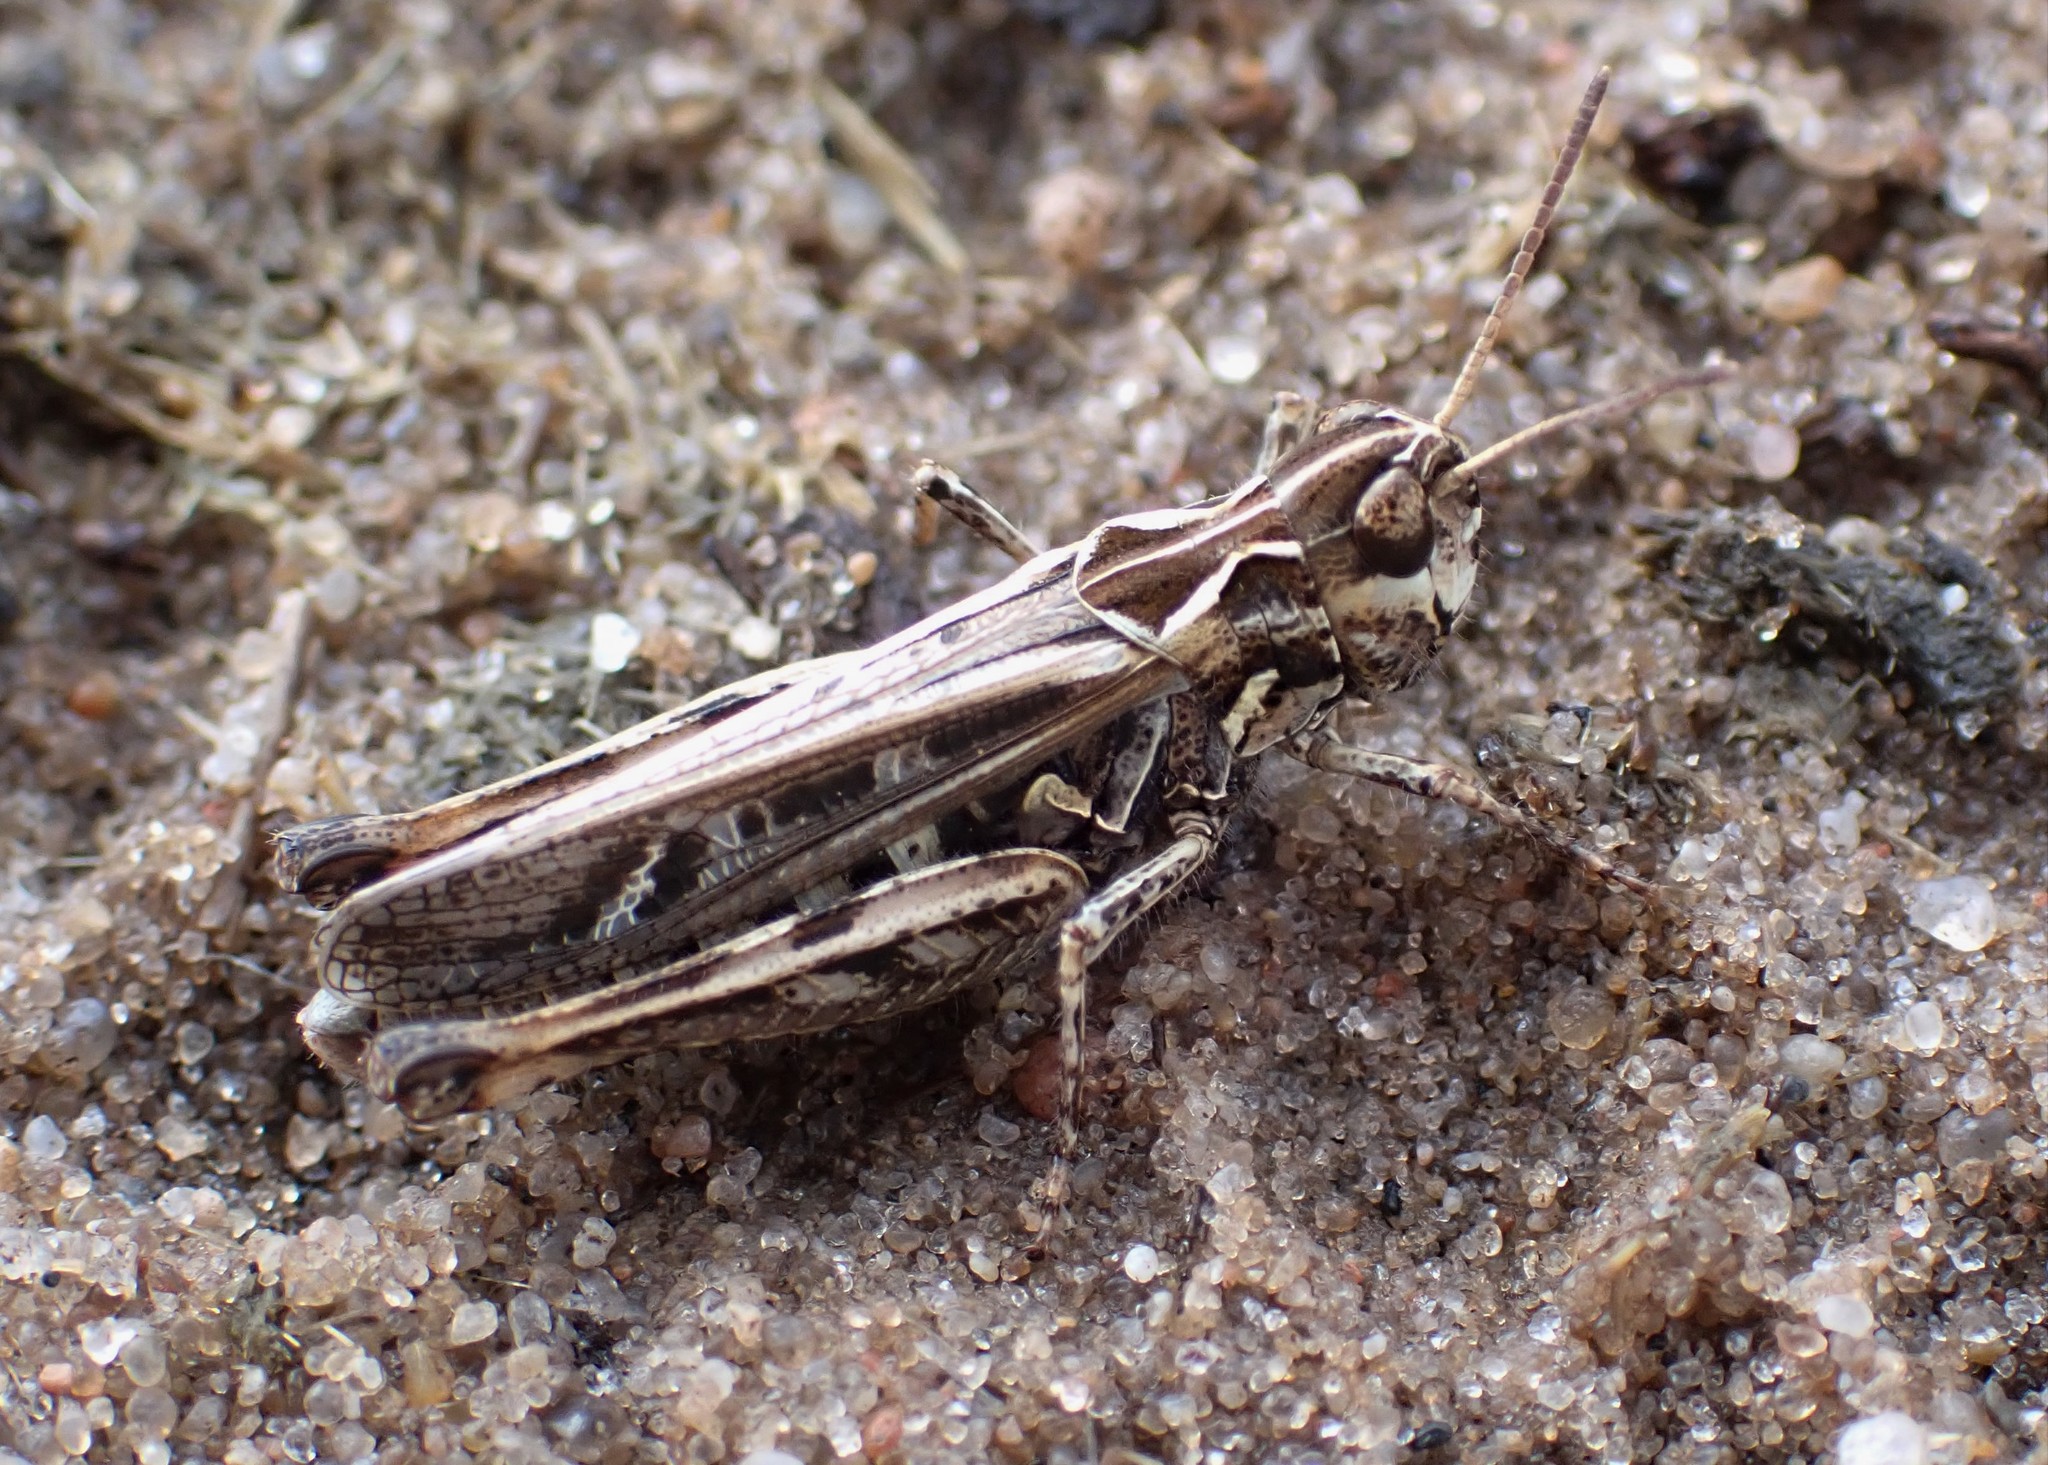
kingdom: Animalia
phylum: Arthropoda
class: Insecta
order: Orthoptera
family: Acrididae
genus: Myrmeleotettix
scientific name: Myrmeleotettix maculatus
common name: Mottled grasshopper
